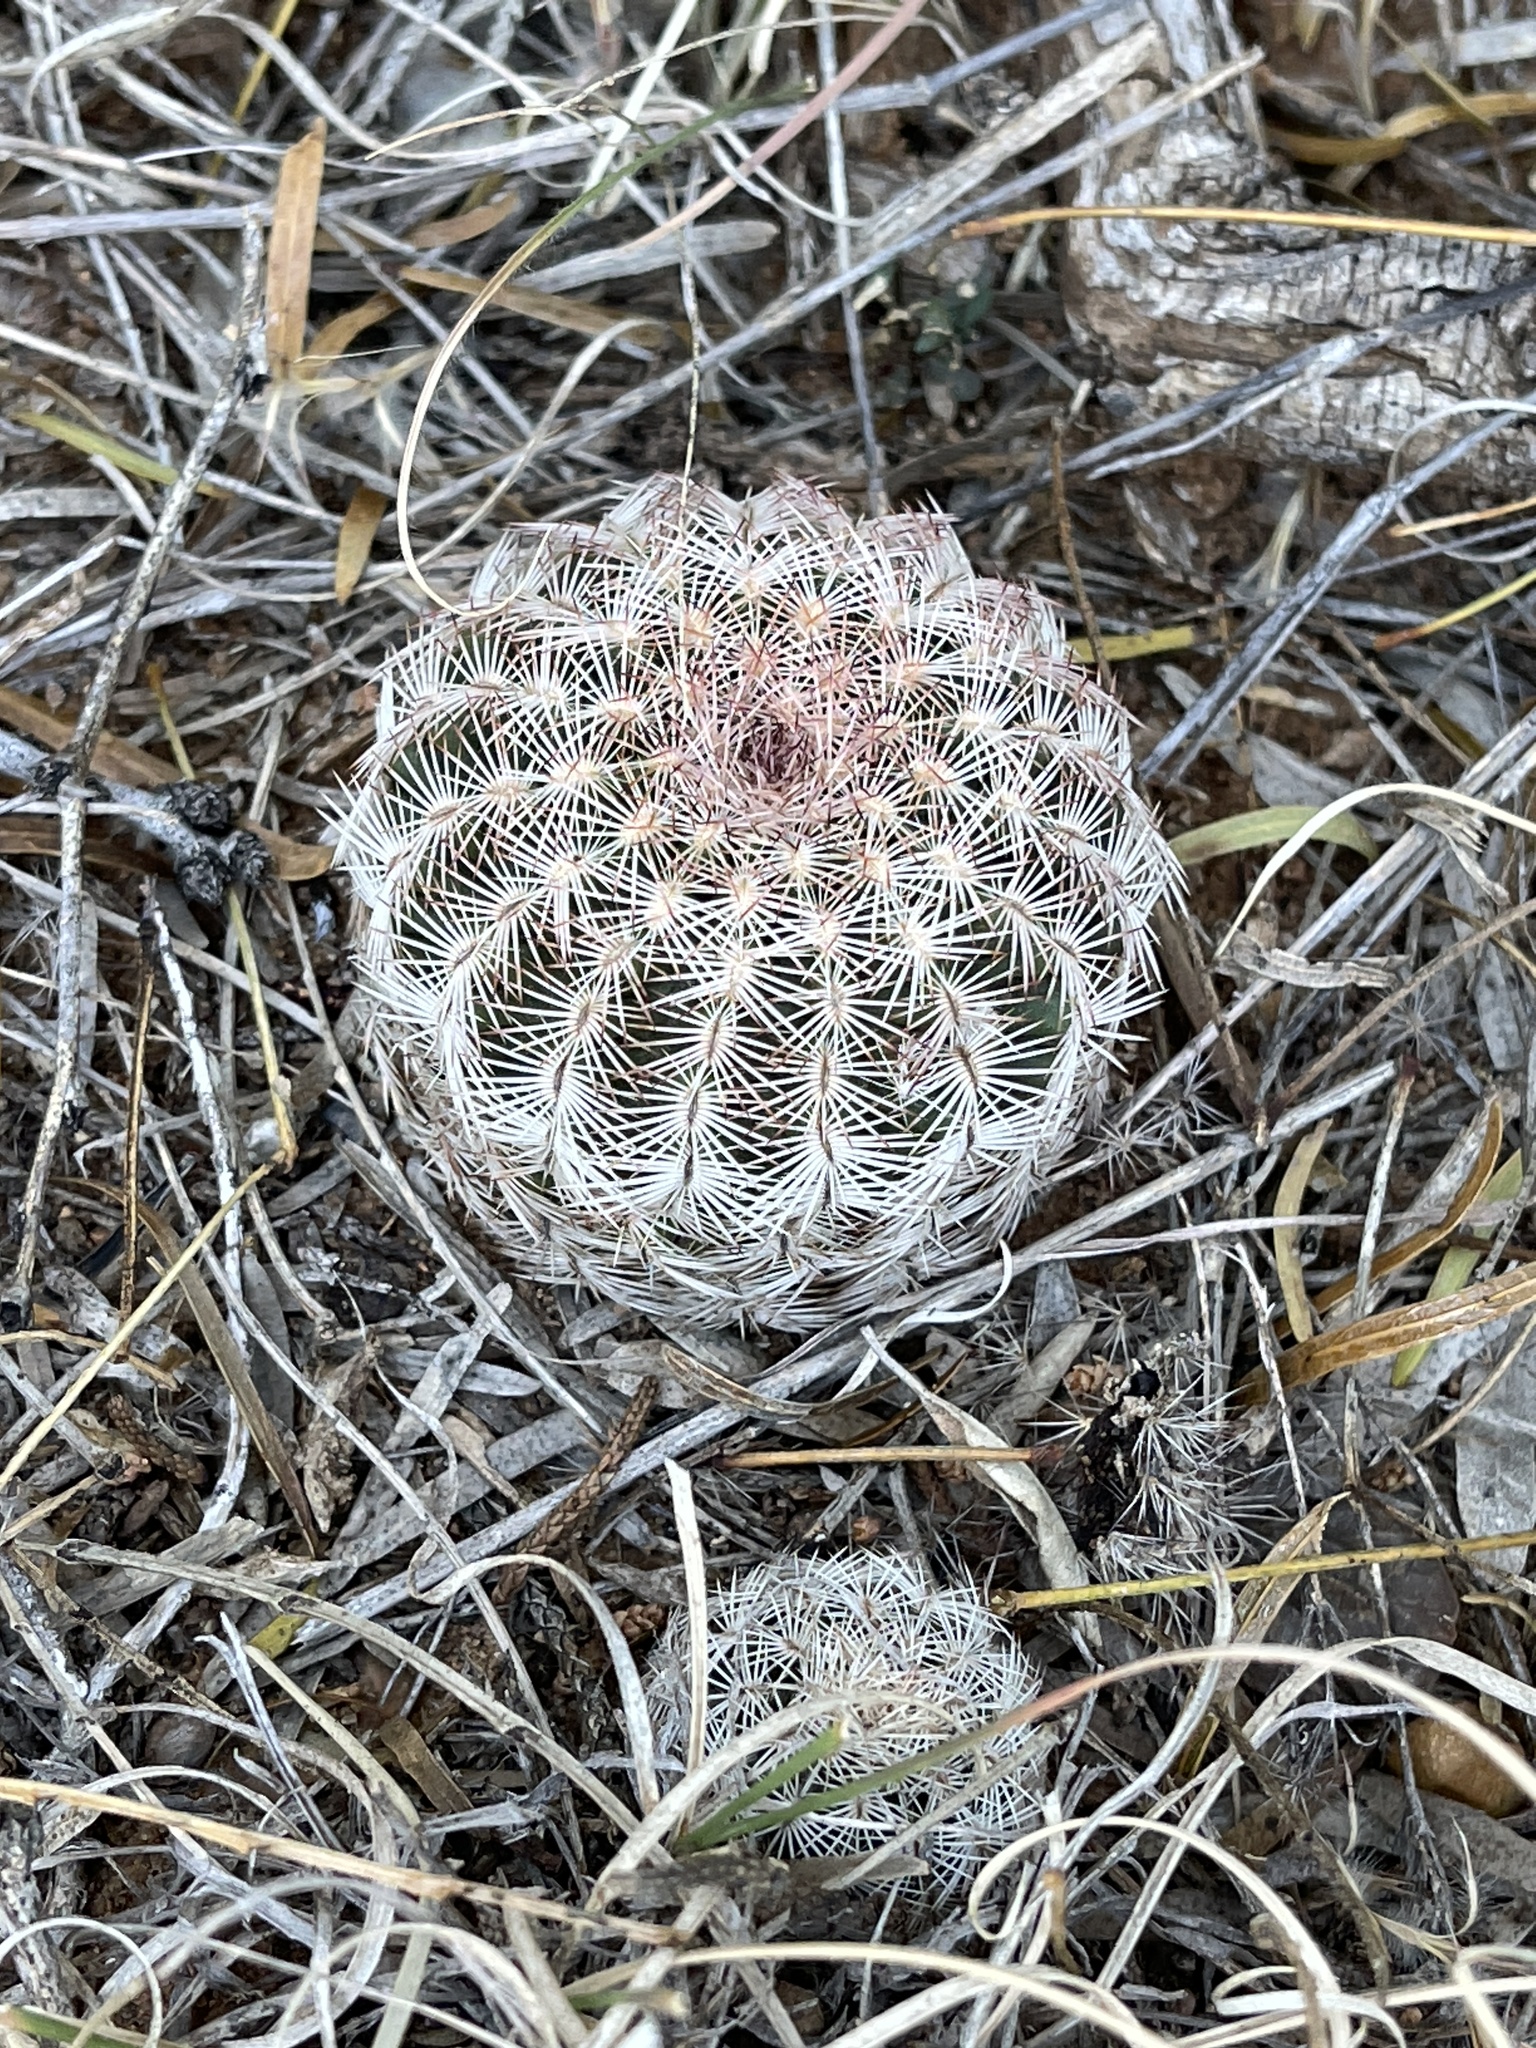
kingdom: Plantae
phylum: Tracheophyta
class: Magnoliopsida
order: Caryophyllales
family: Cactaceae
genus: Echinocereus
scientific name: Echinocereus reichenbachii
